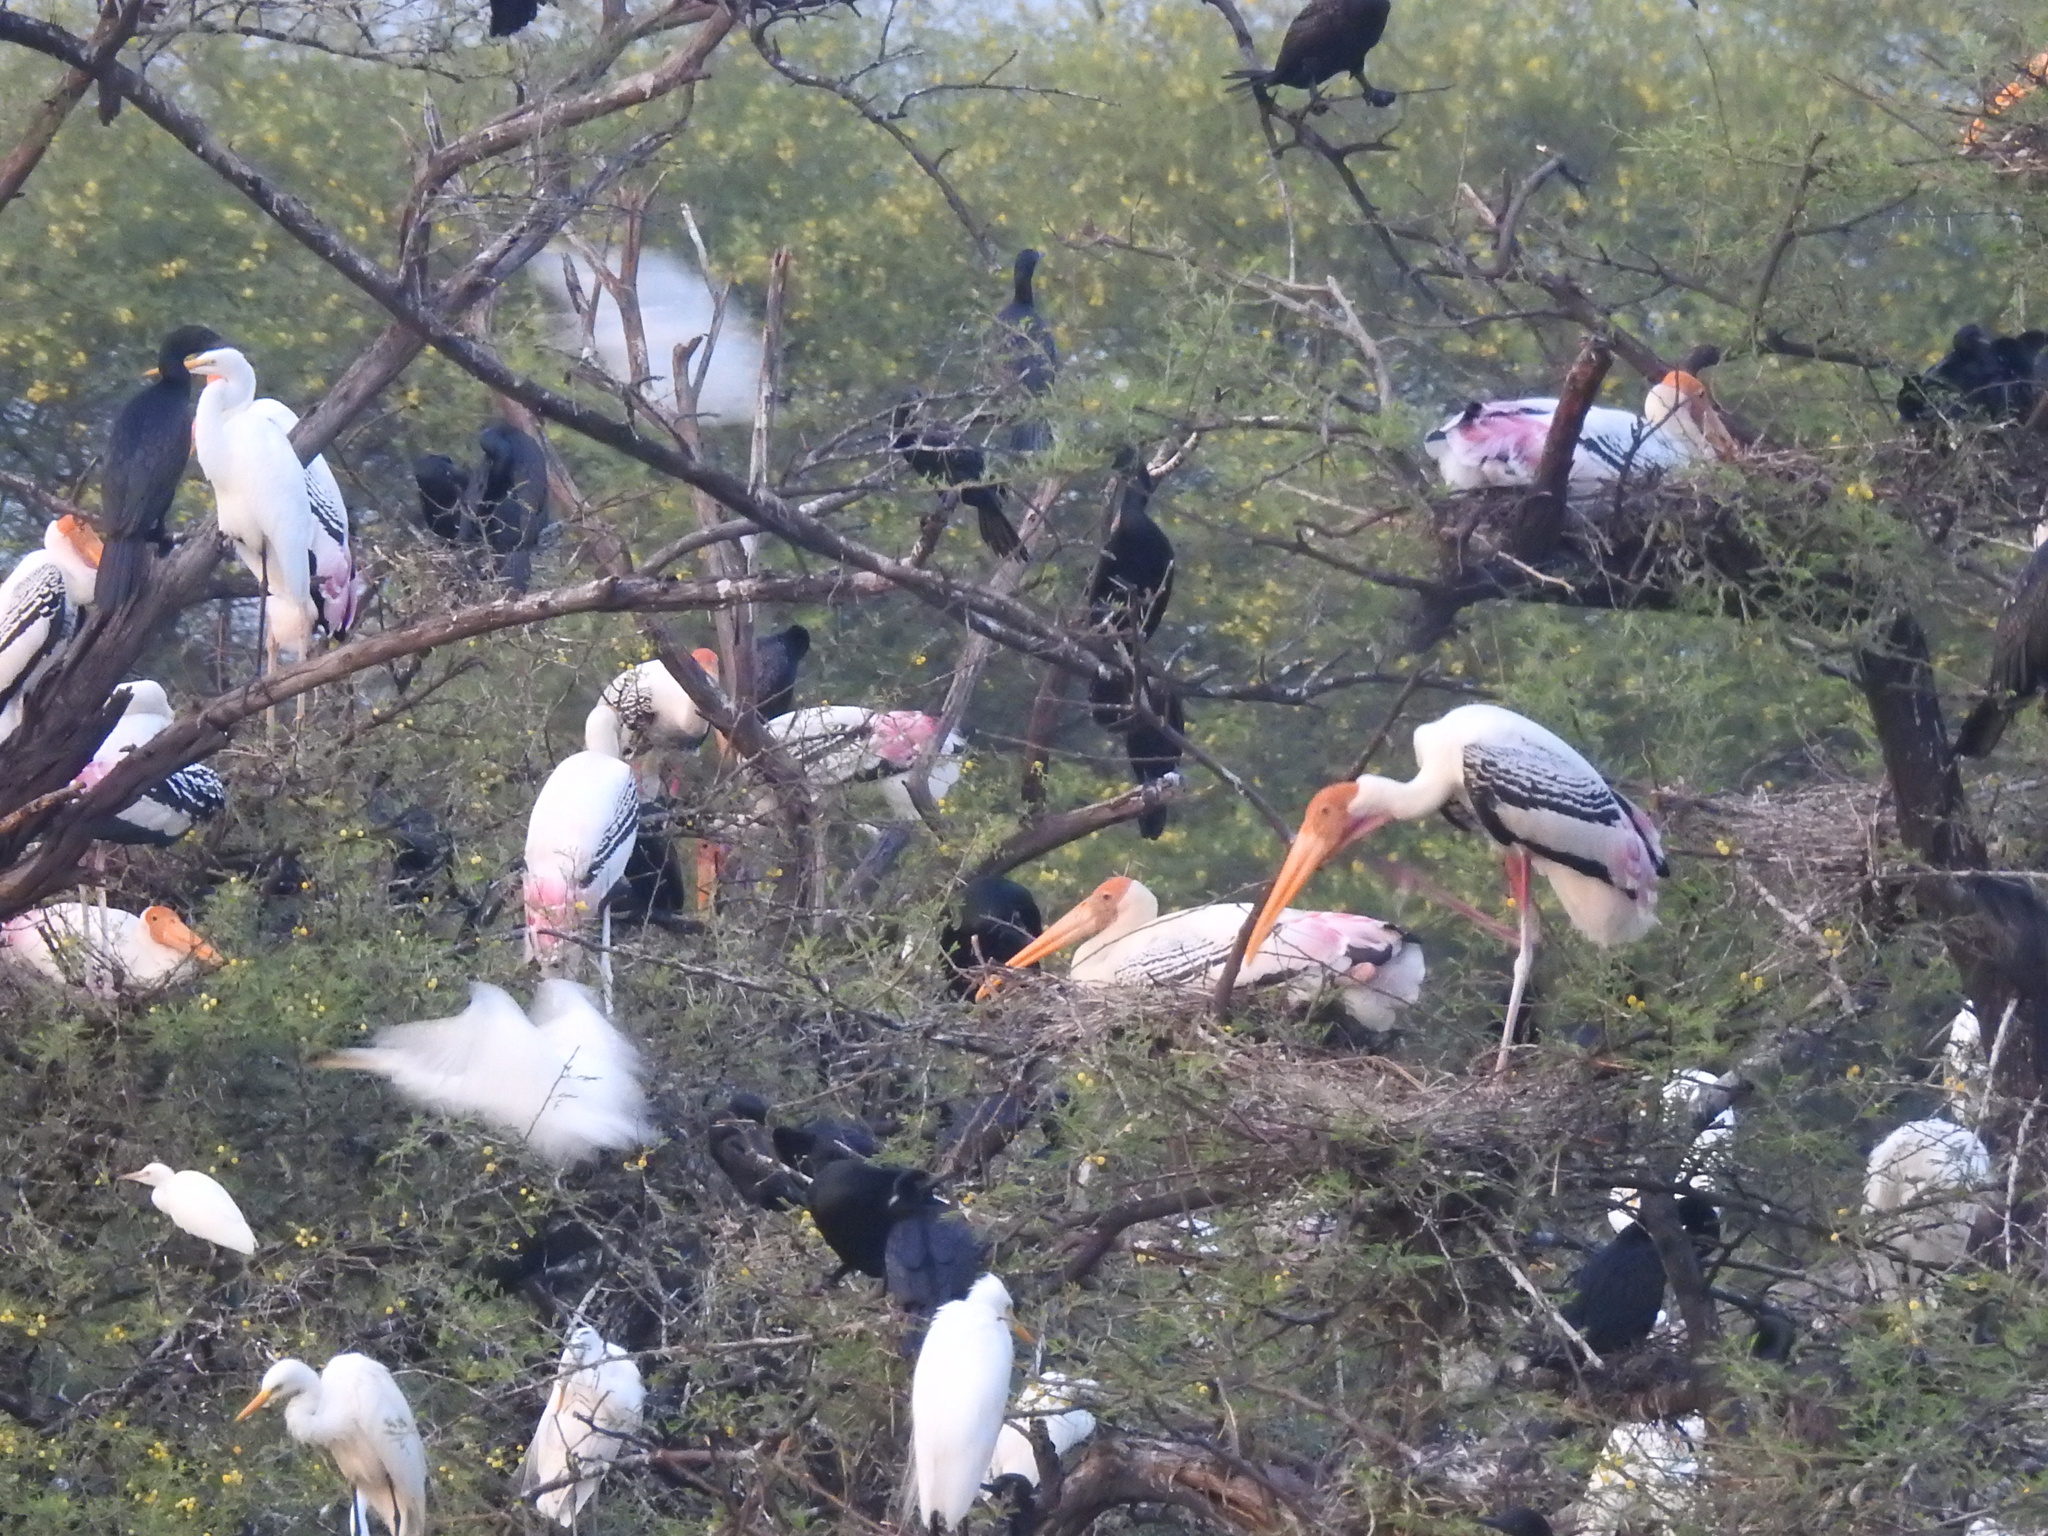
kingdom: Animalia
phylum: Chordata
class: Aves
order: Ciconiiformes
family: Ciconiidae
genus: Mycteria
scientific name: Mycteria leucocephala
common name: Painted stork
